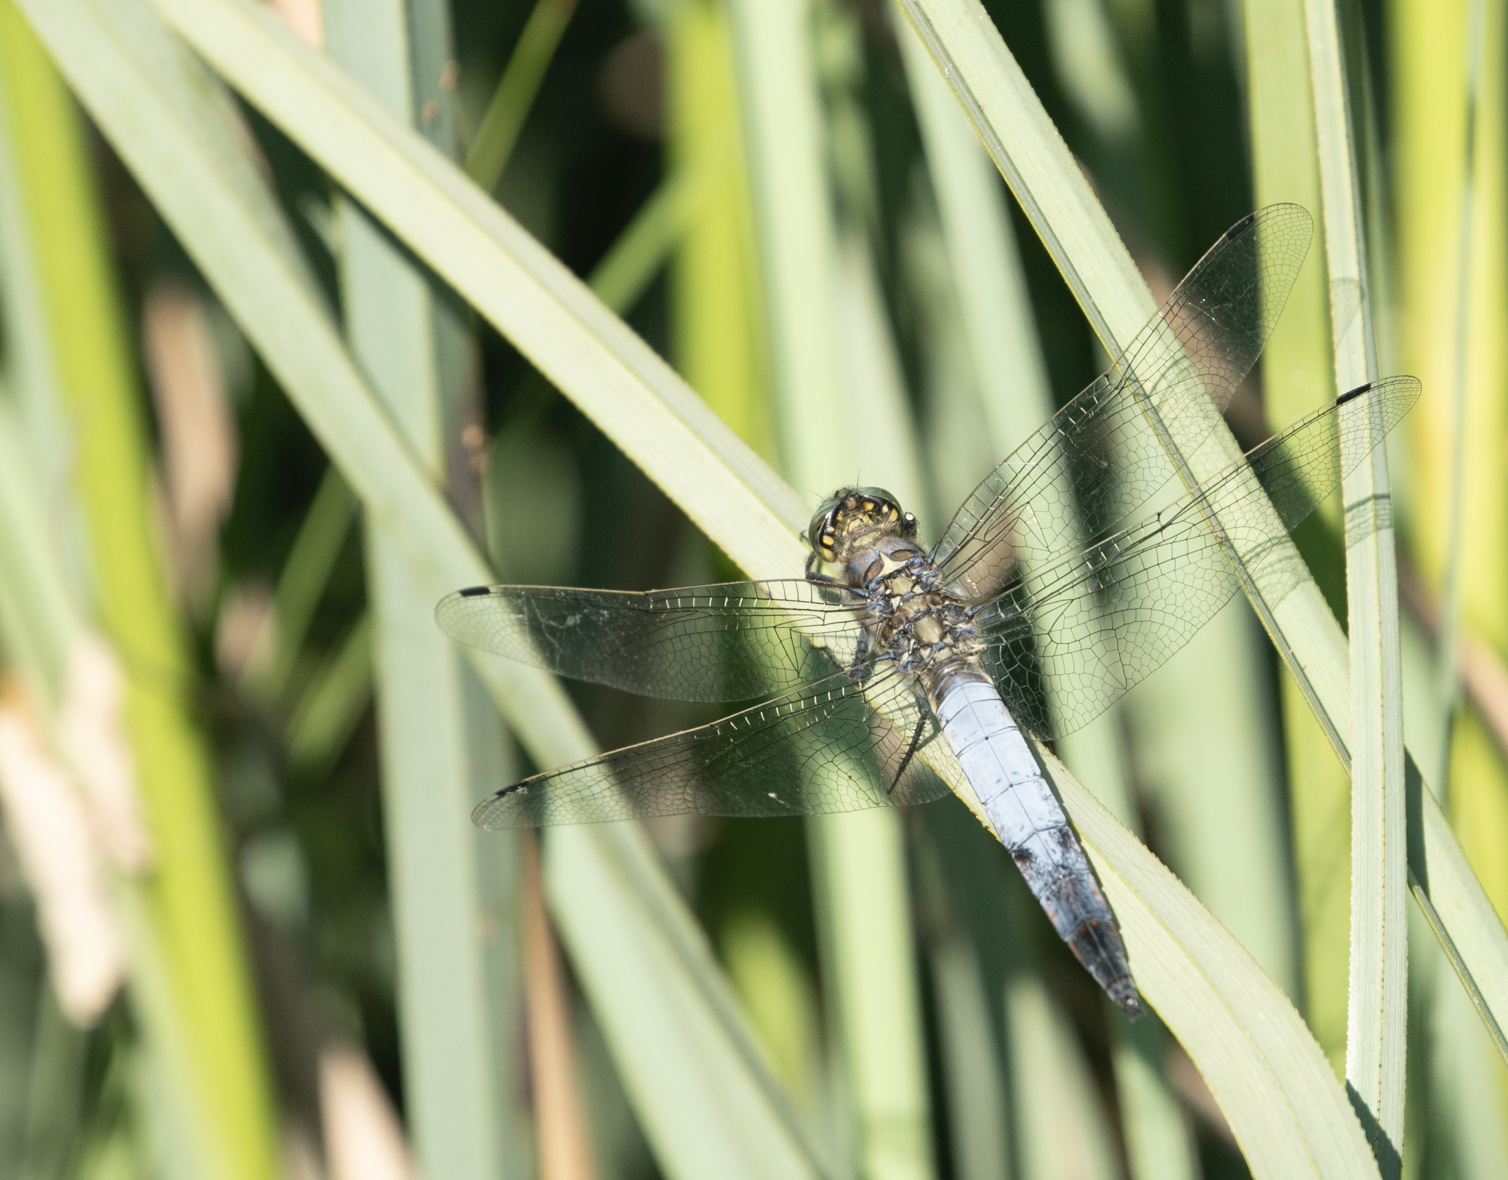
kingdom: Animalia
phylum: Arthropoda
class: Insecta
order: Odonata
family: Libellulidae
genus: Orthetrum
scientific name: Orthetrum cancellatum
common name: Black-tailed skimmer
